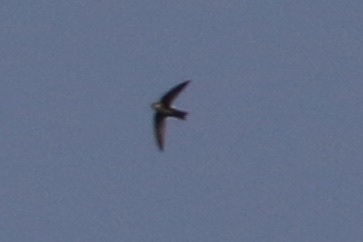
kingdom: Animalia
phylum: Chordata
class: Aves
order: Apodiformes
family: Apodidae
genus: Aeronautes
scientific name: Aeronautes saxatalis
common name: White-throated swift
